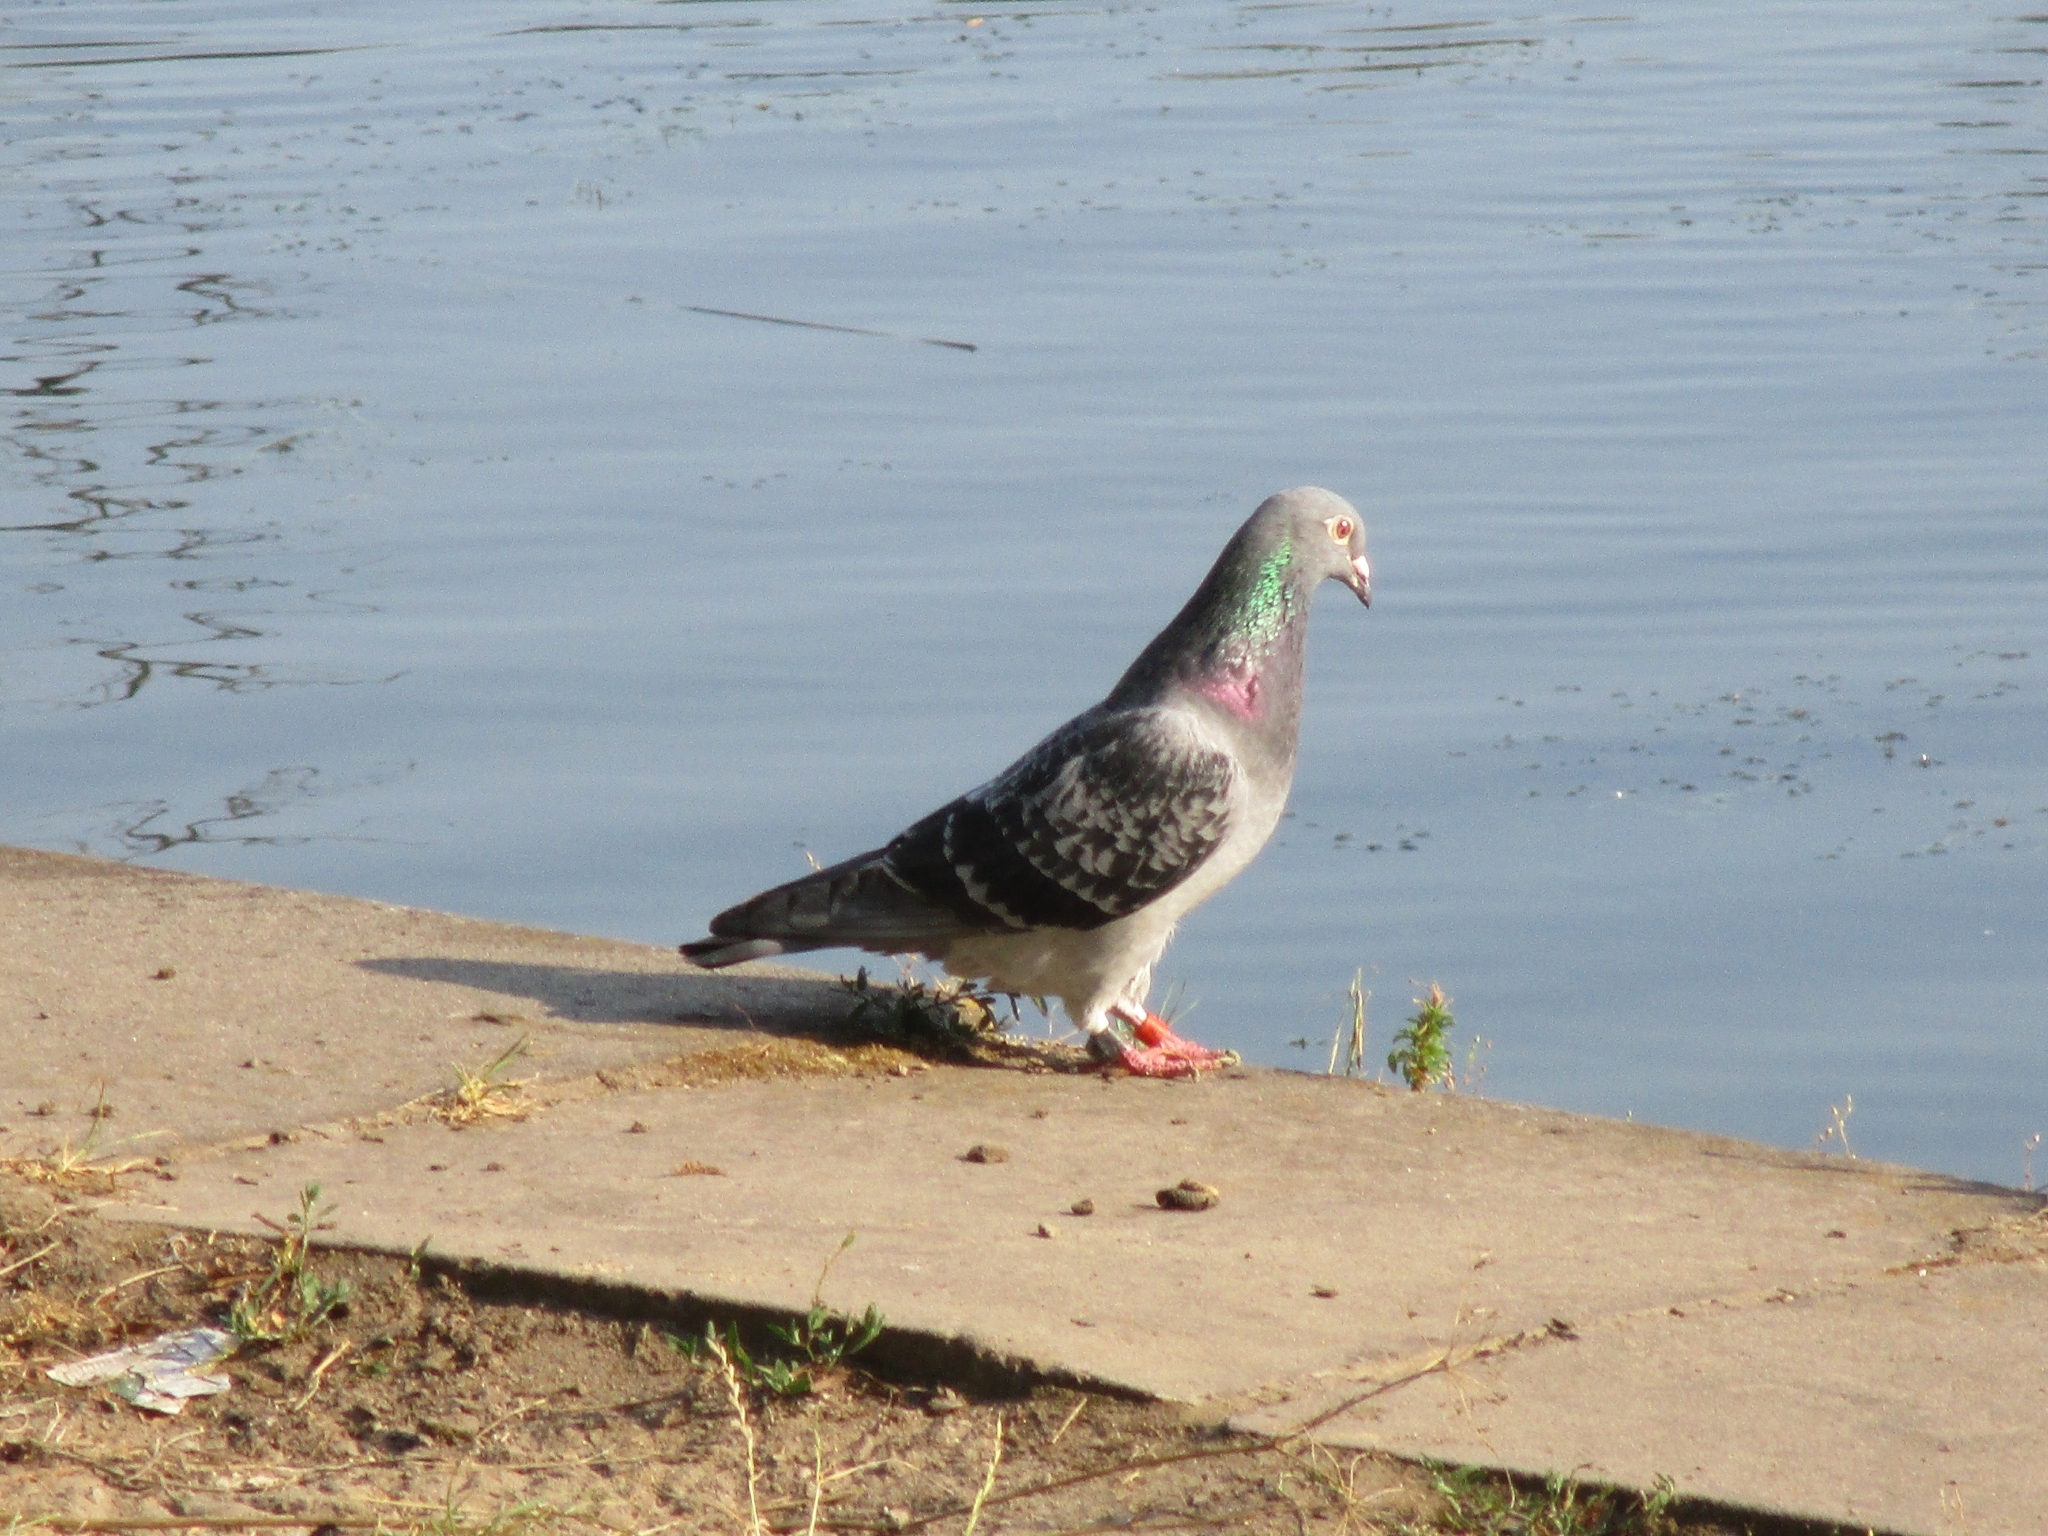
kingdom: Animalia
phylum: Chordata
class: Aves
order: Columbiformes
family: Columbidae
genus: Columba
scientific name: Columba livia
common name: Rock pigeon
